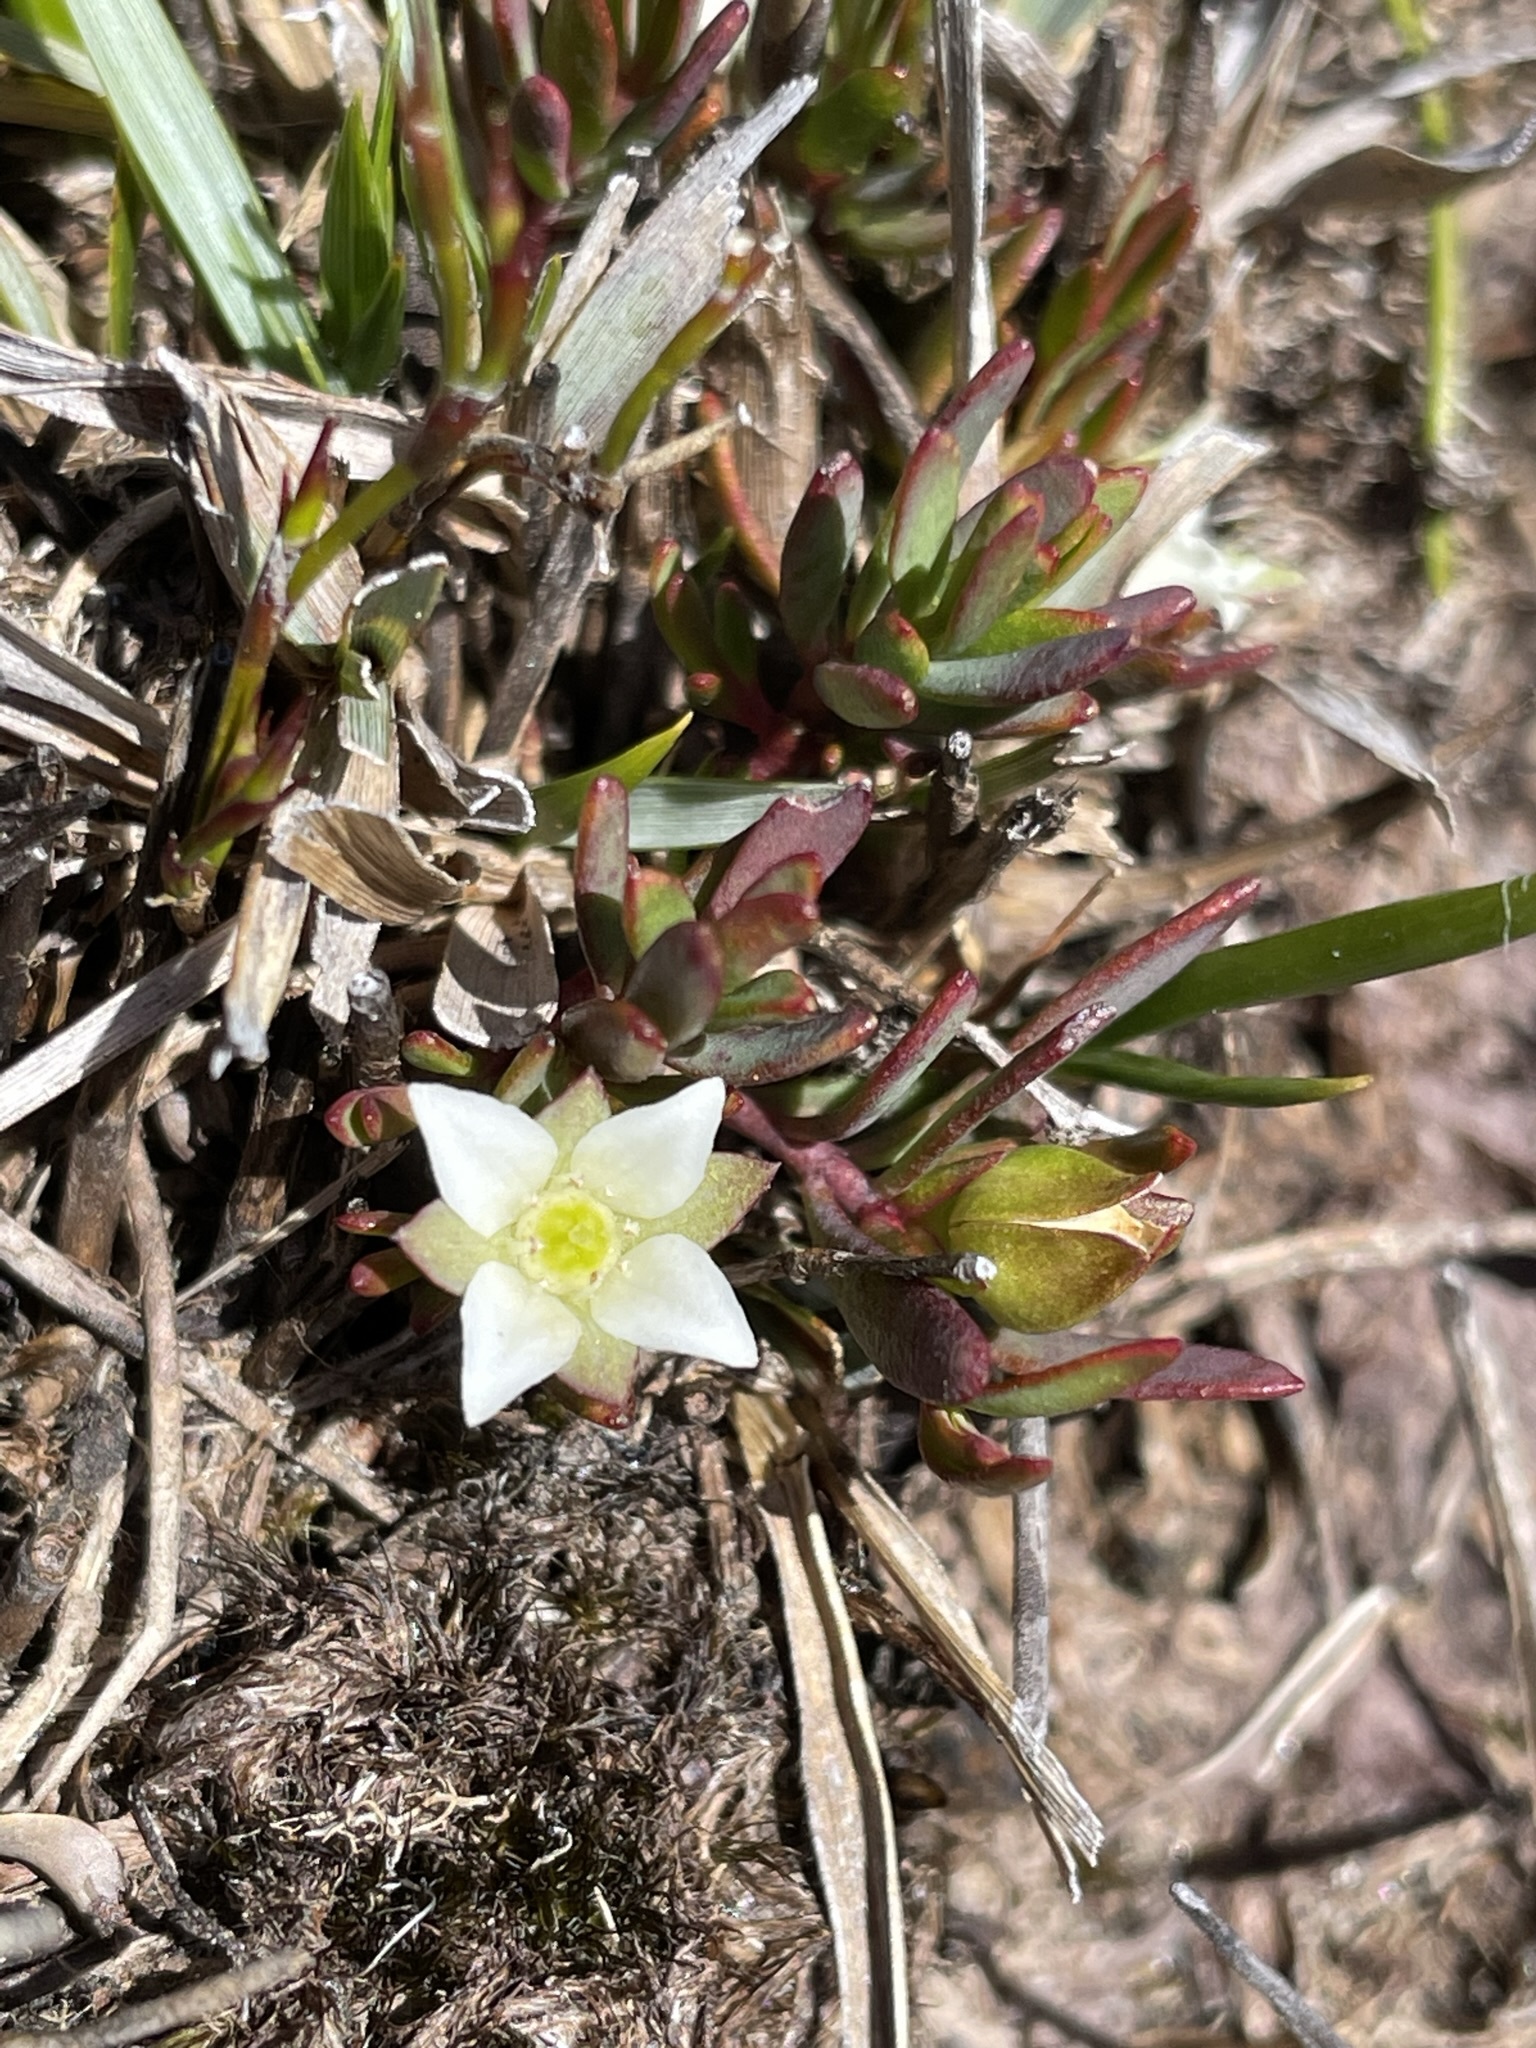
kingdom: Plantae
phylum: Tracheophyta
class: Magnoliopsida
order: Sapindales
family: Rutaceae
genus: Boronia
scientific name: Boronia parviflora
